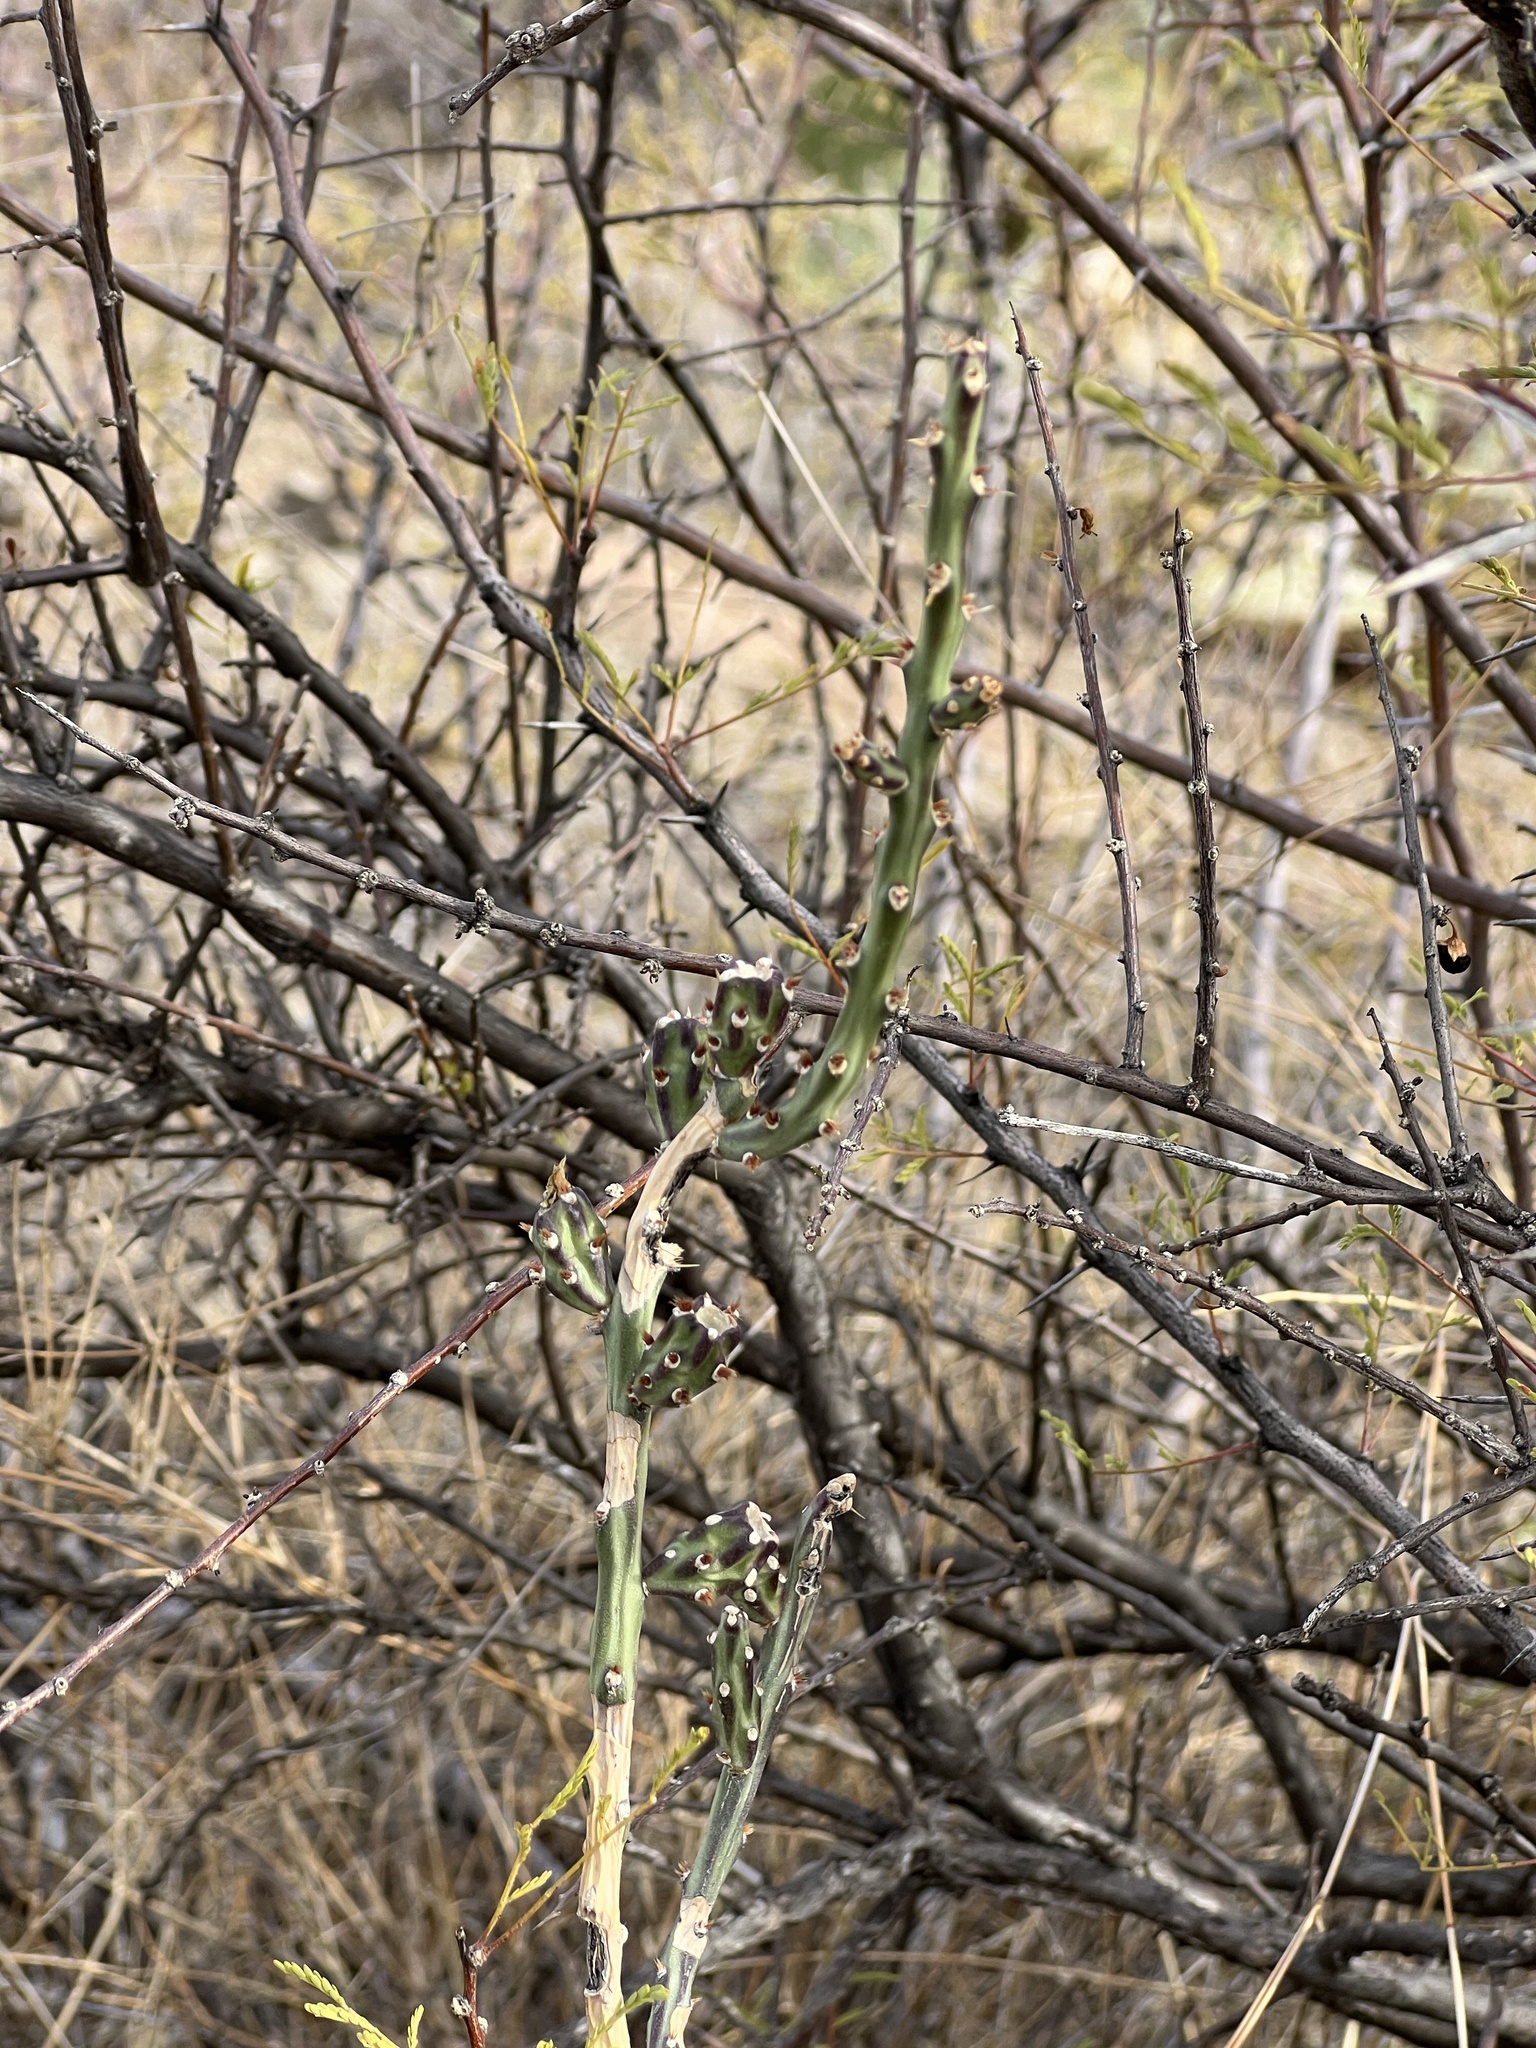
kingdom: Plantae
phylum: Tracheophyta
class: Magnoliopsida
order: Caryophyllales
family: Cactaceae
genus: Cylindropuntia
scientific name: Cylindropuntia leptocaulis
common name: Christmas cactus
